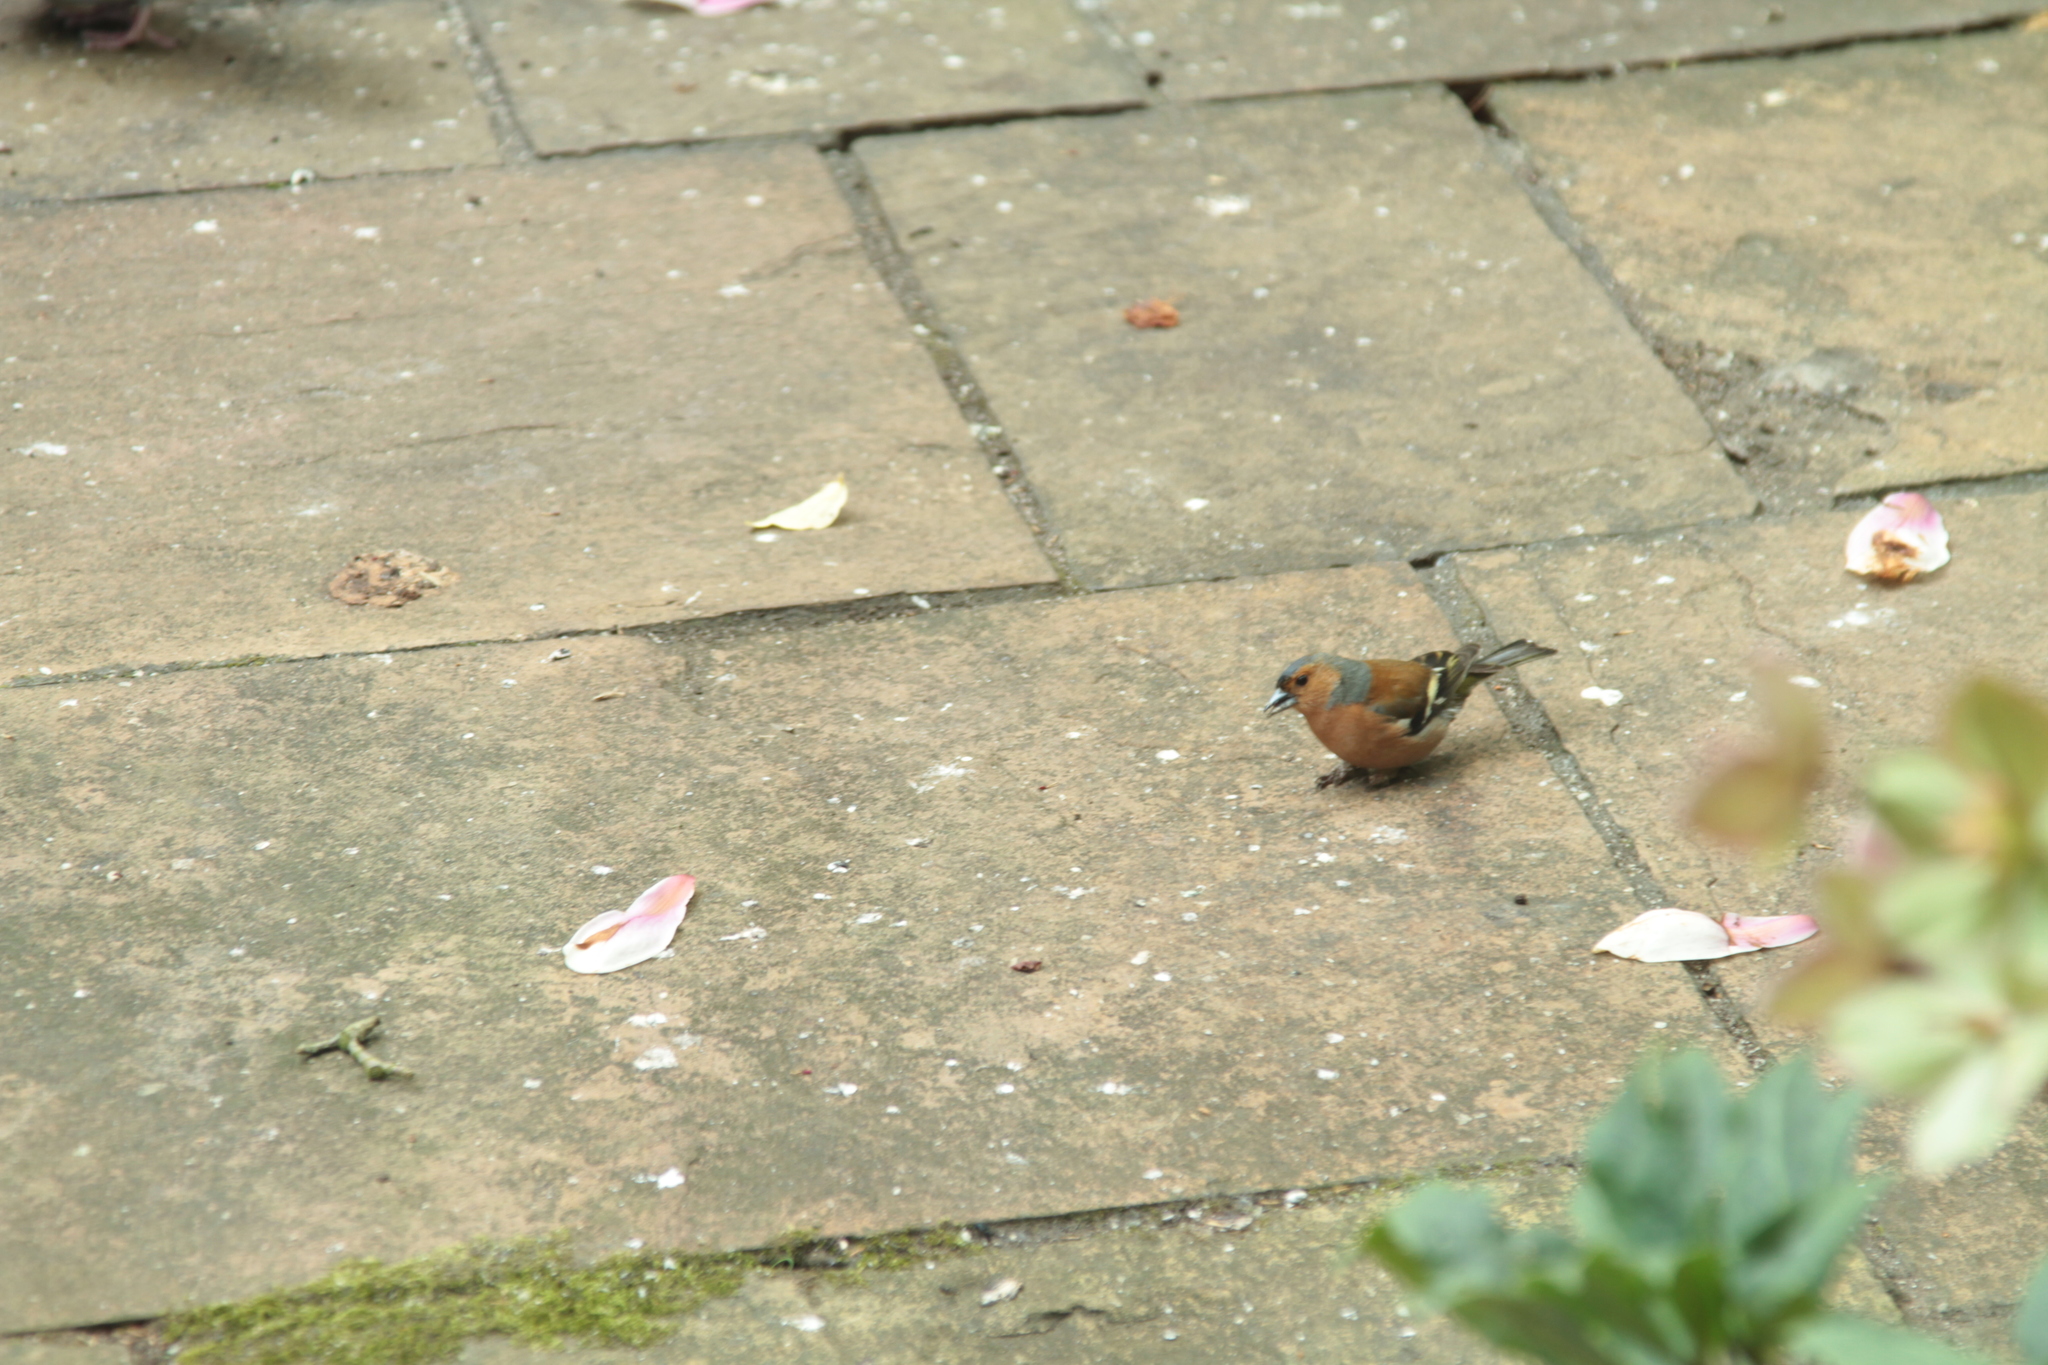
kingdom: Animalia
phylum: Chordata
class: Aves
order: Passeriformes
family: Fringillidae
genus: Fringilla
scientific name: Fringilla coelebs
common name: Common chaffinch
